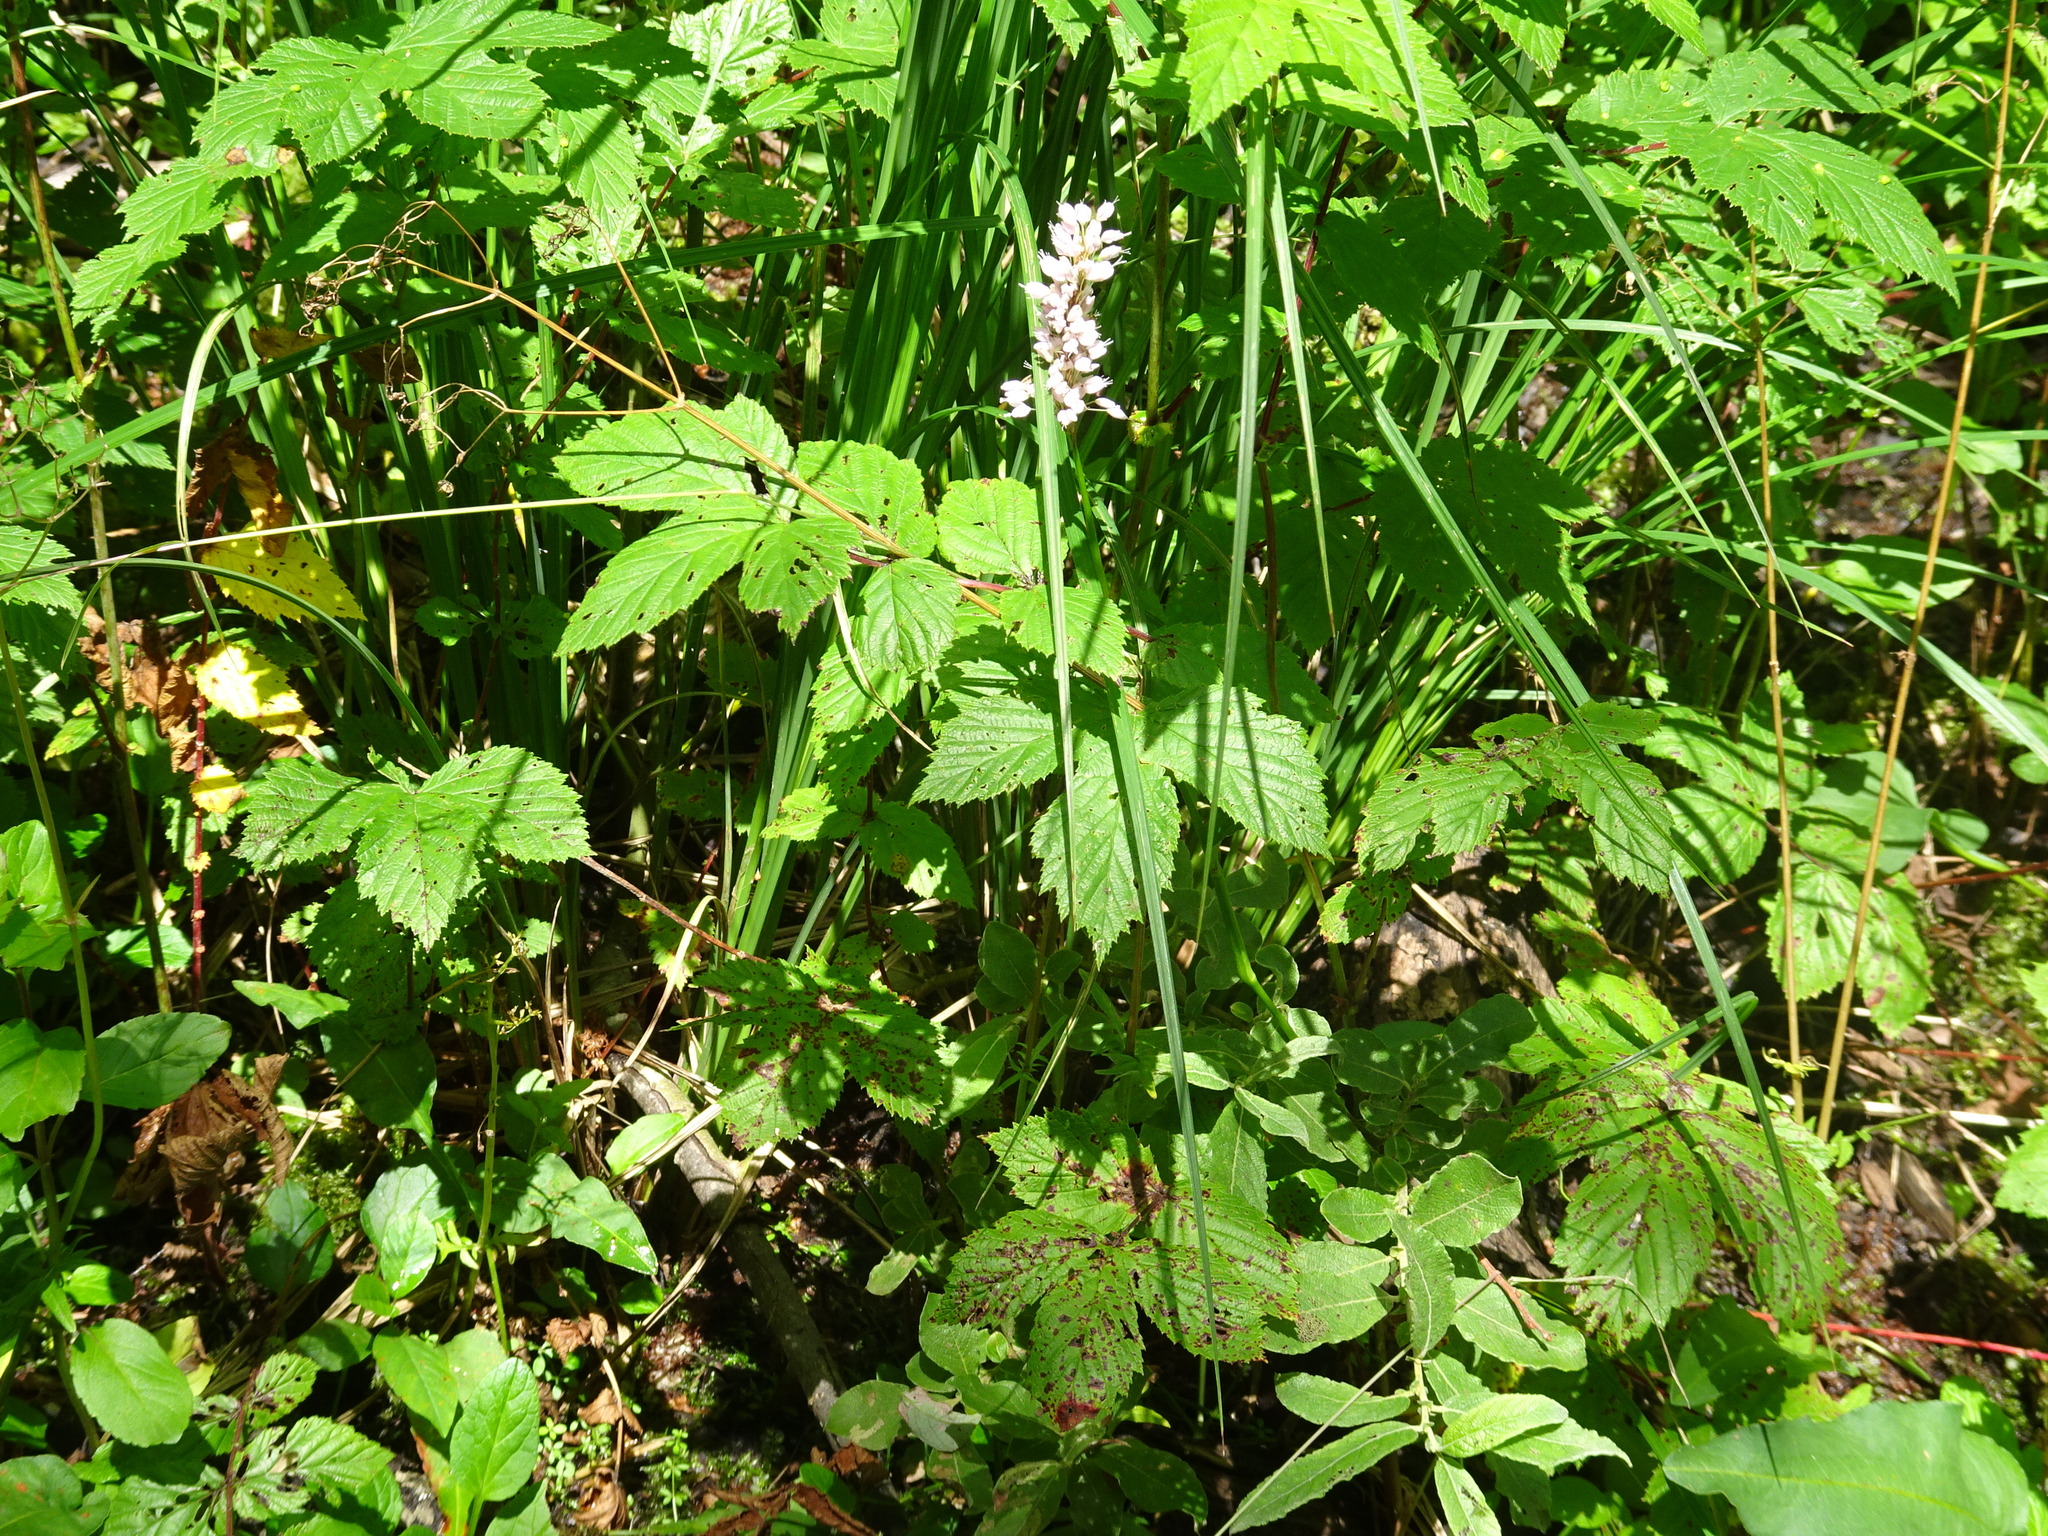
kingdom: Plantae
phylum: Tracheophyta
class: Magnoliopsida
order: Caryophyllales
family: Polygonaceae
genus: Bistorta
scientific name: Bistorta officinalis
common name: Common bistort
